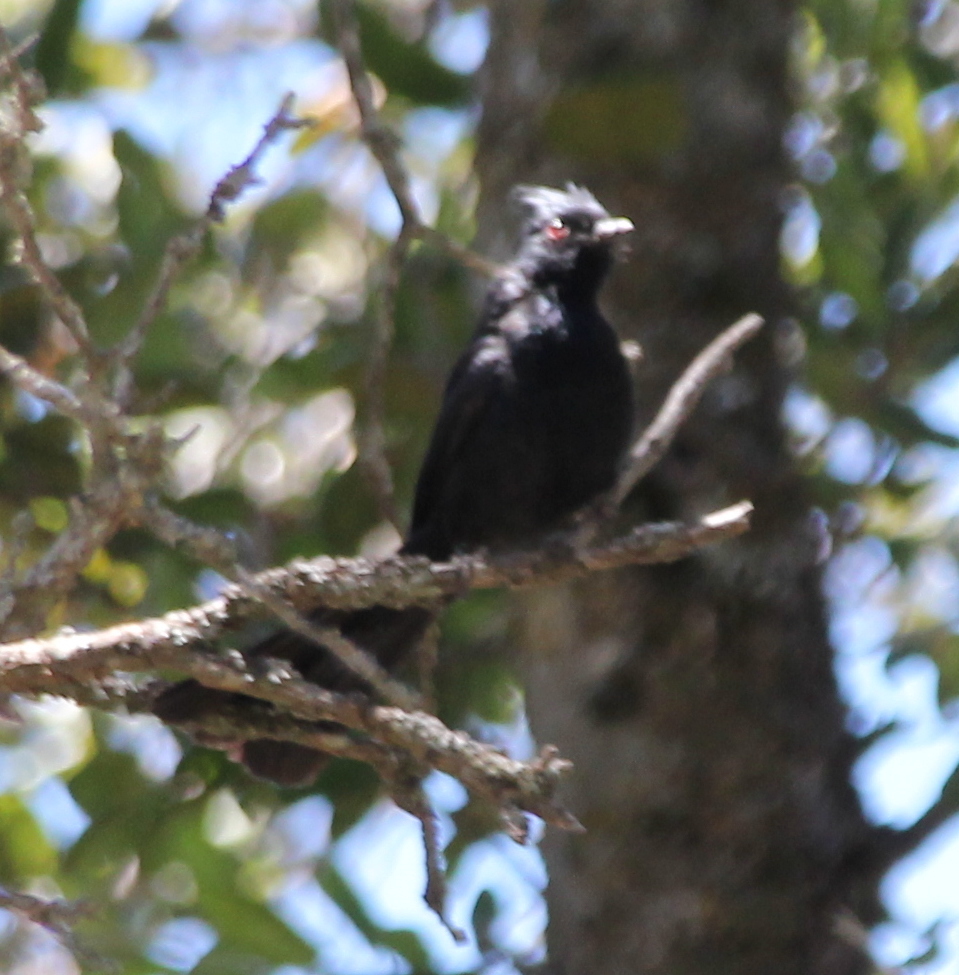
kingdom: Animalia
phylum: Chordata
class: Aves
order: Passeriformes
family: Ptilogonatidae
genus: Phainopepla
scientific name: Phainopepla nitens
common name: Phainopepla
